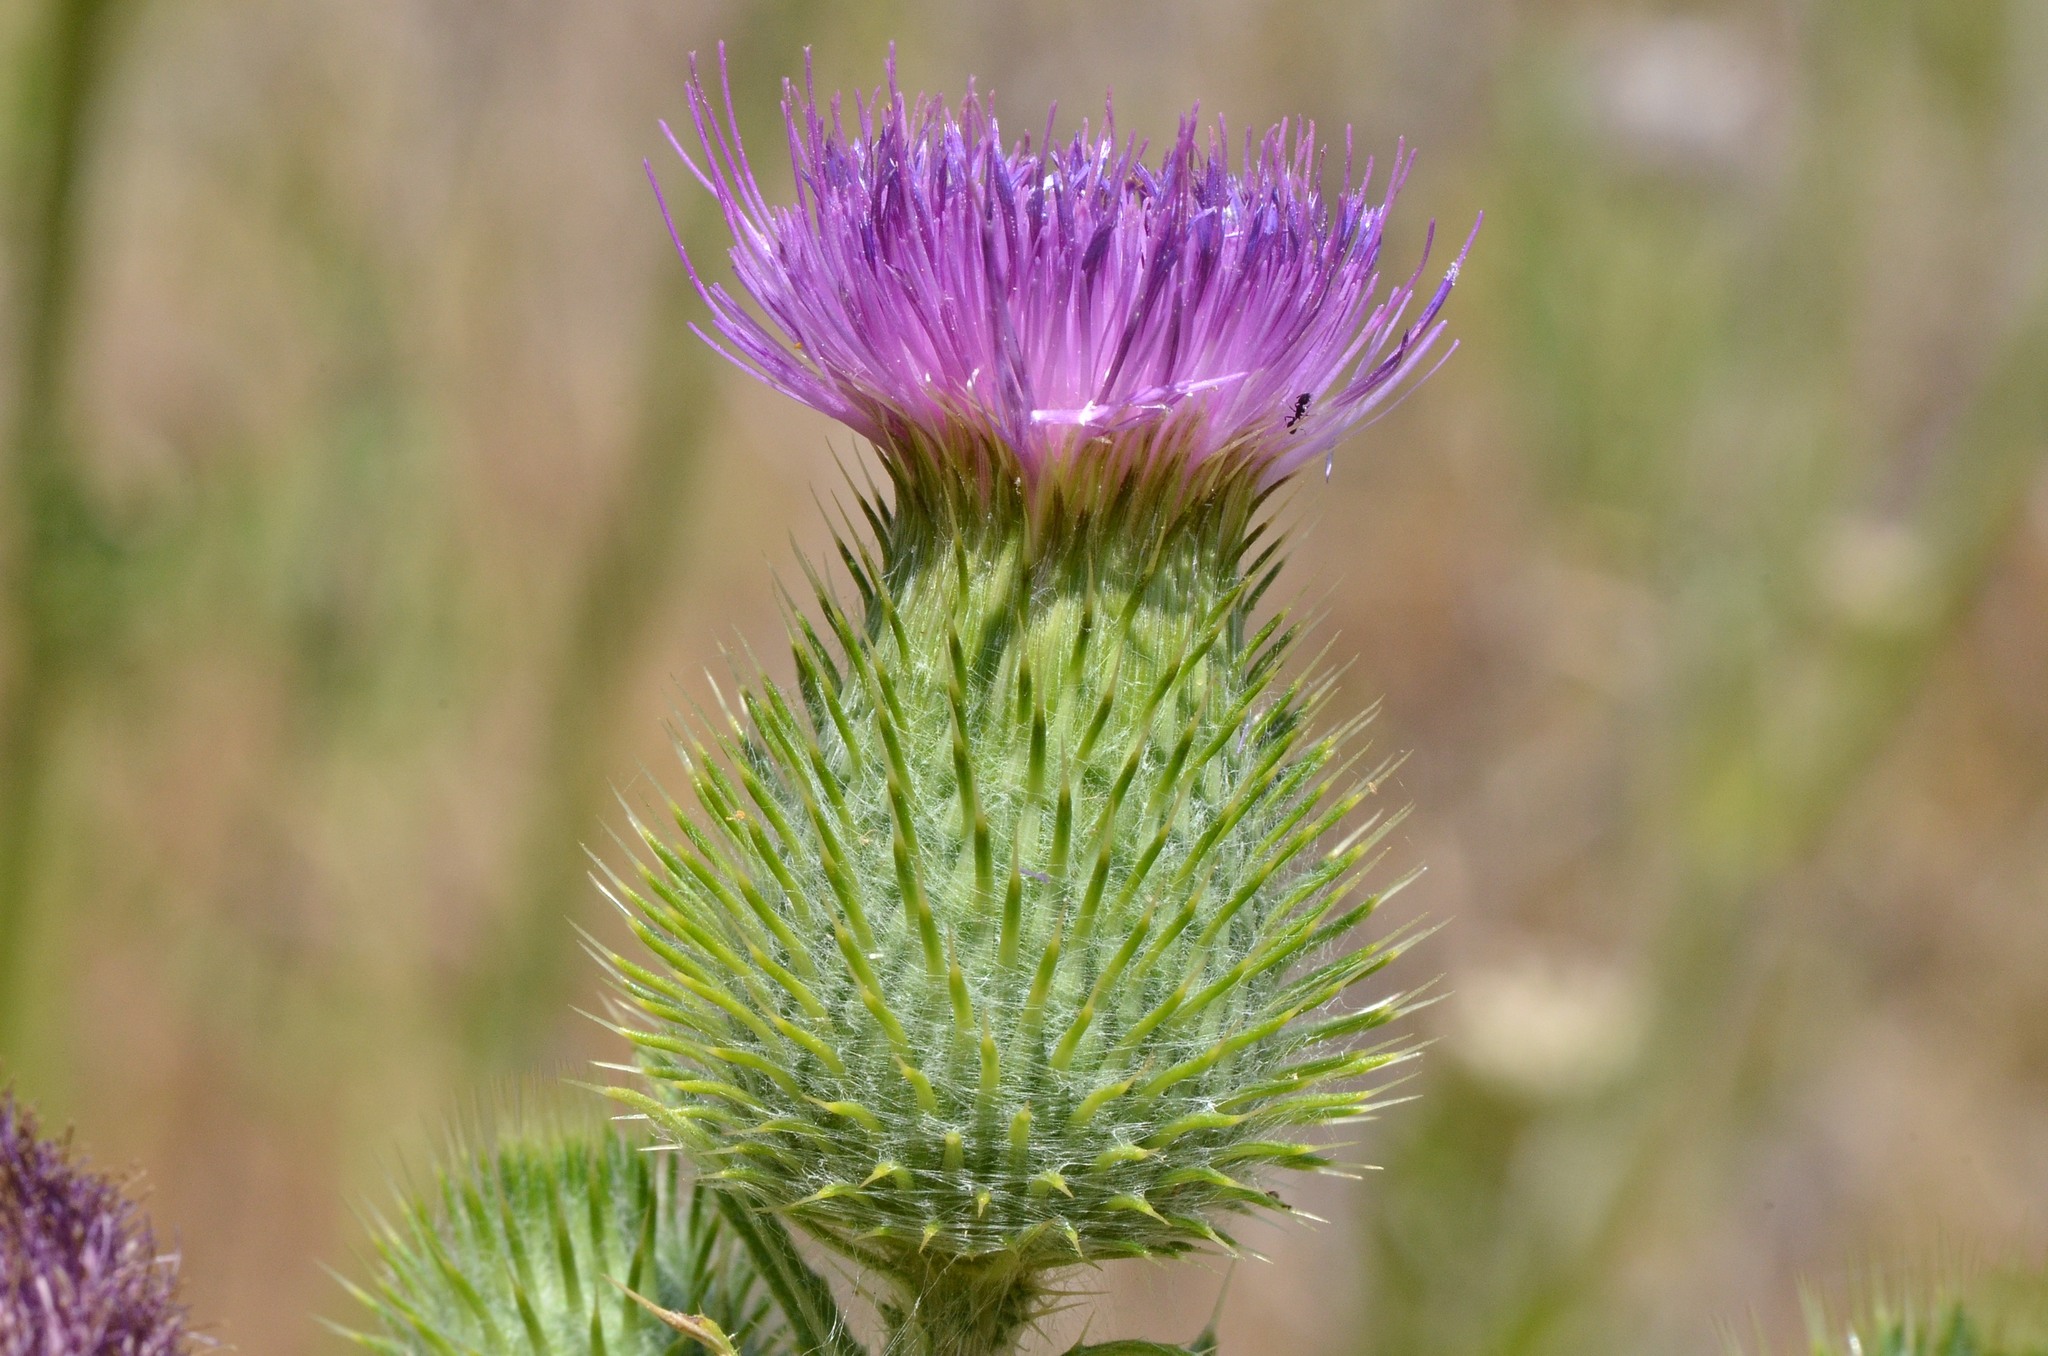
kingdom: Plantae
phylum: Tracheophyta
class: Magnoliopsida
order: Asterales
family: Asteraceae
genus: Cirsium
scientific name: Cirsium vulgare
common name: Bull thistle
